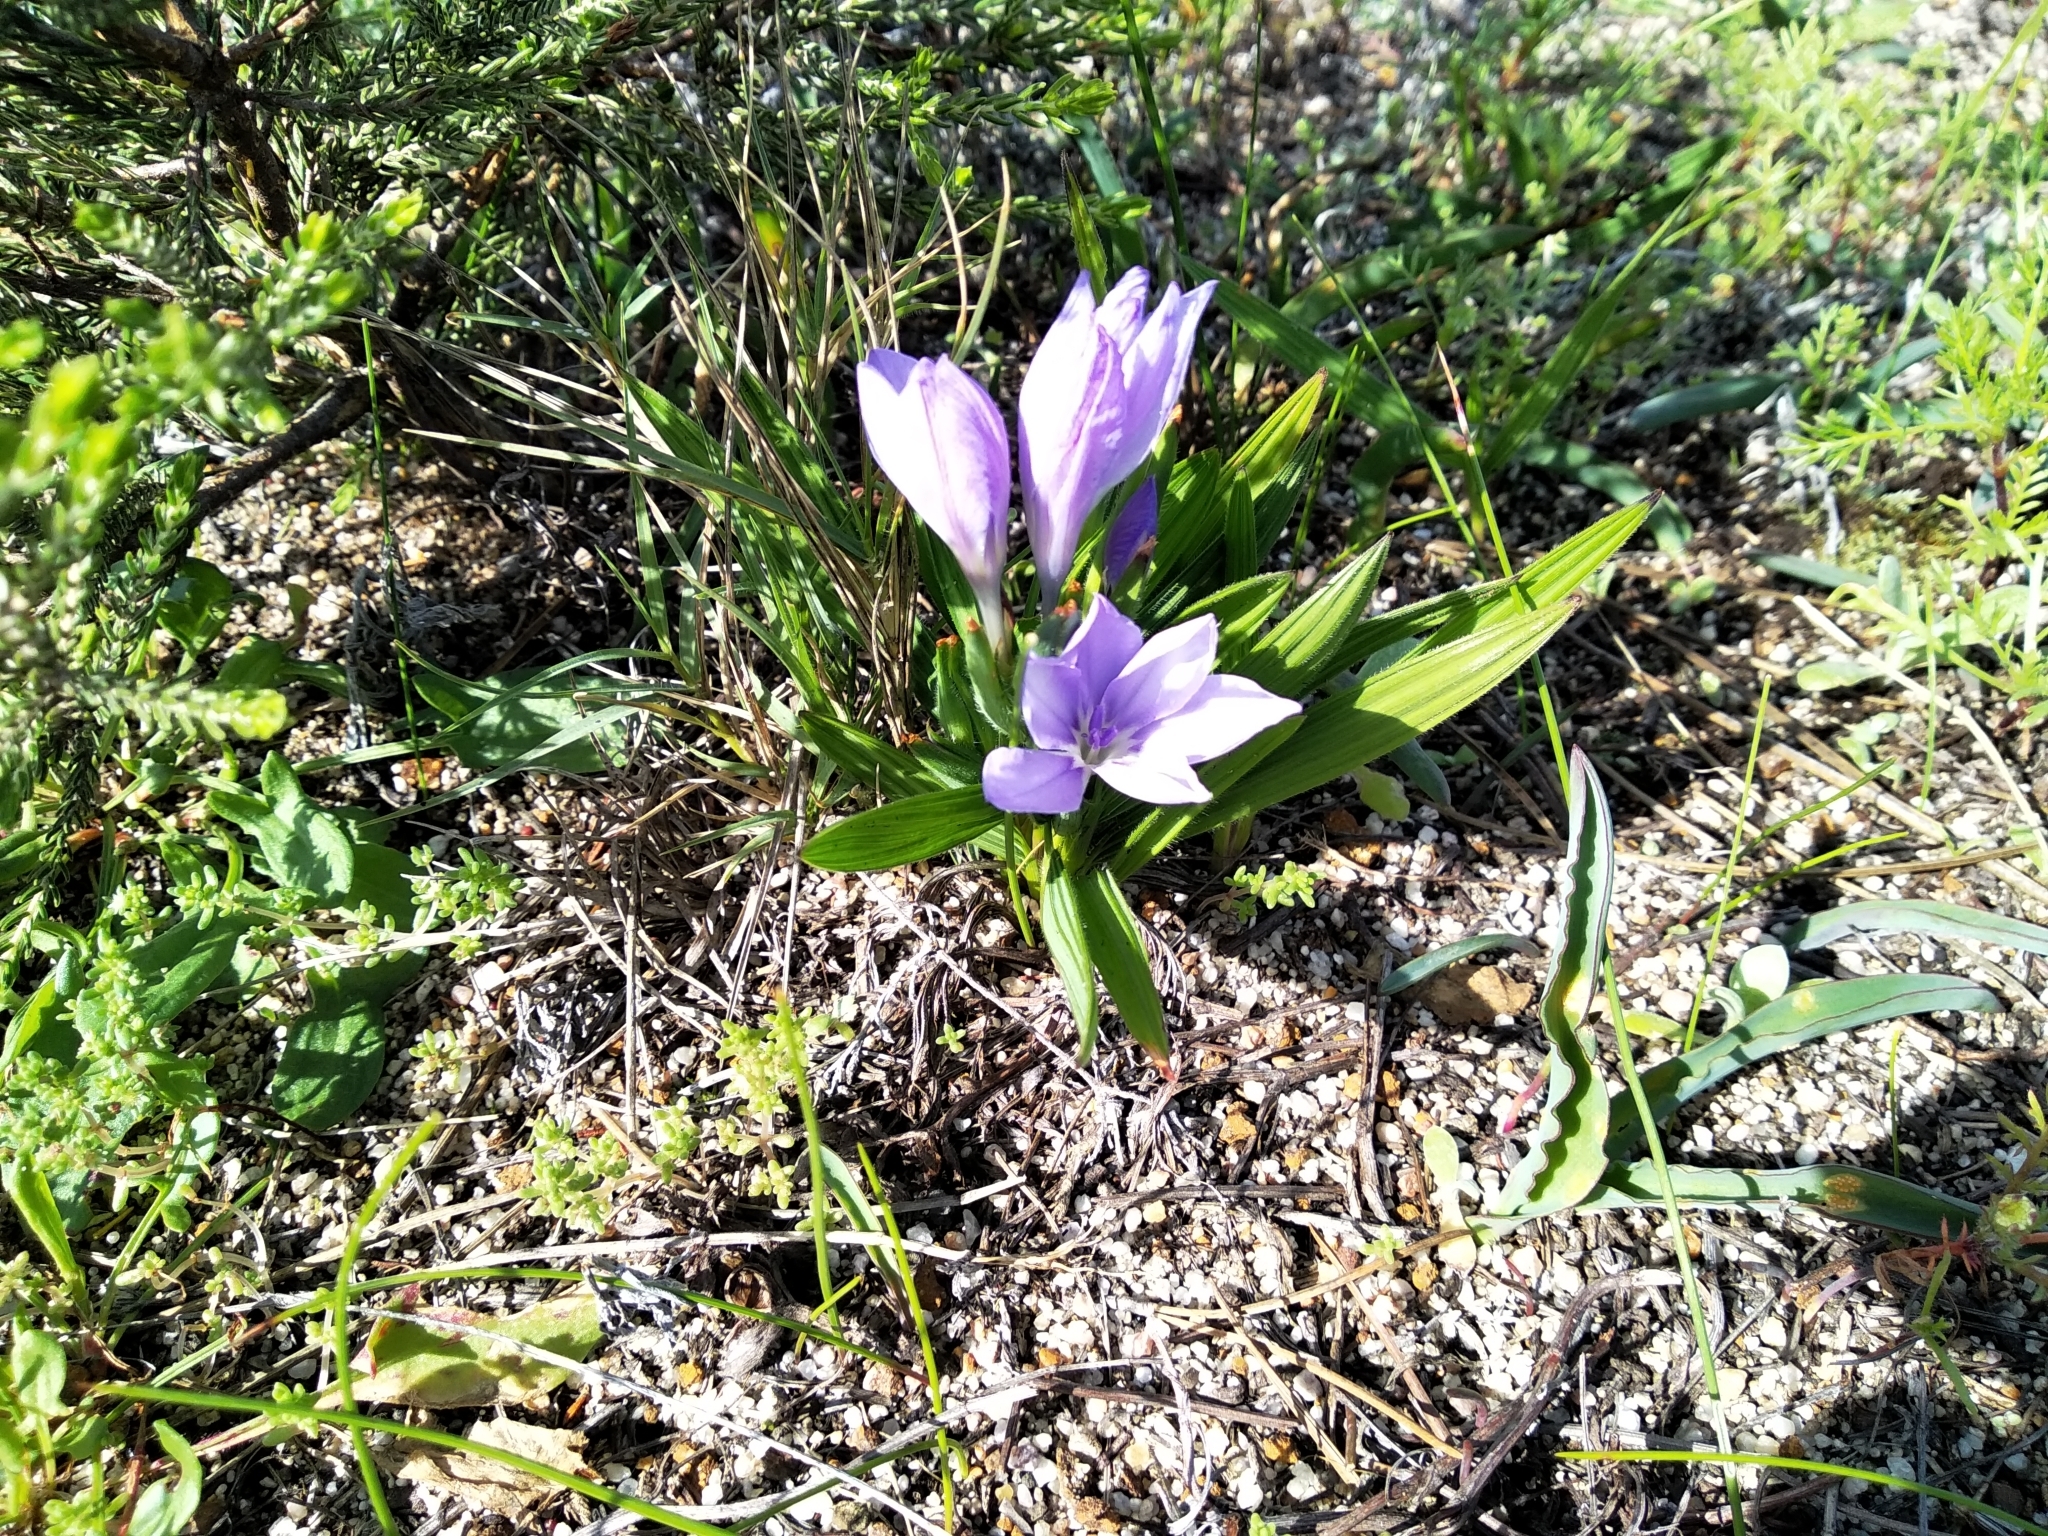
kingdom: Plantae
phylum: Tracheophyta
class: Liliopsida
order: Asparagales
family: Iridaceae
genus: Babiana
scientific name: Babiana villosula
